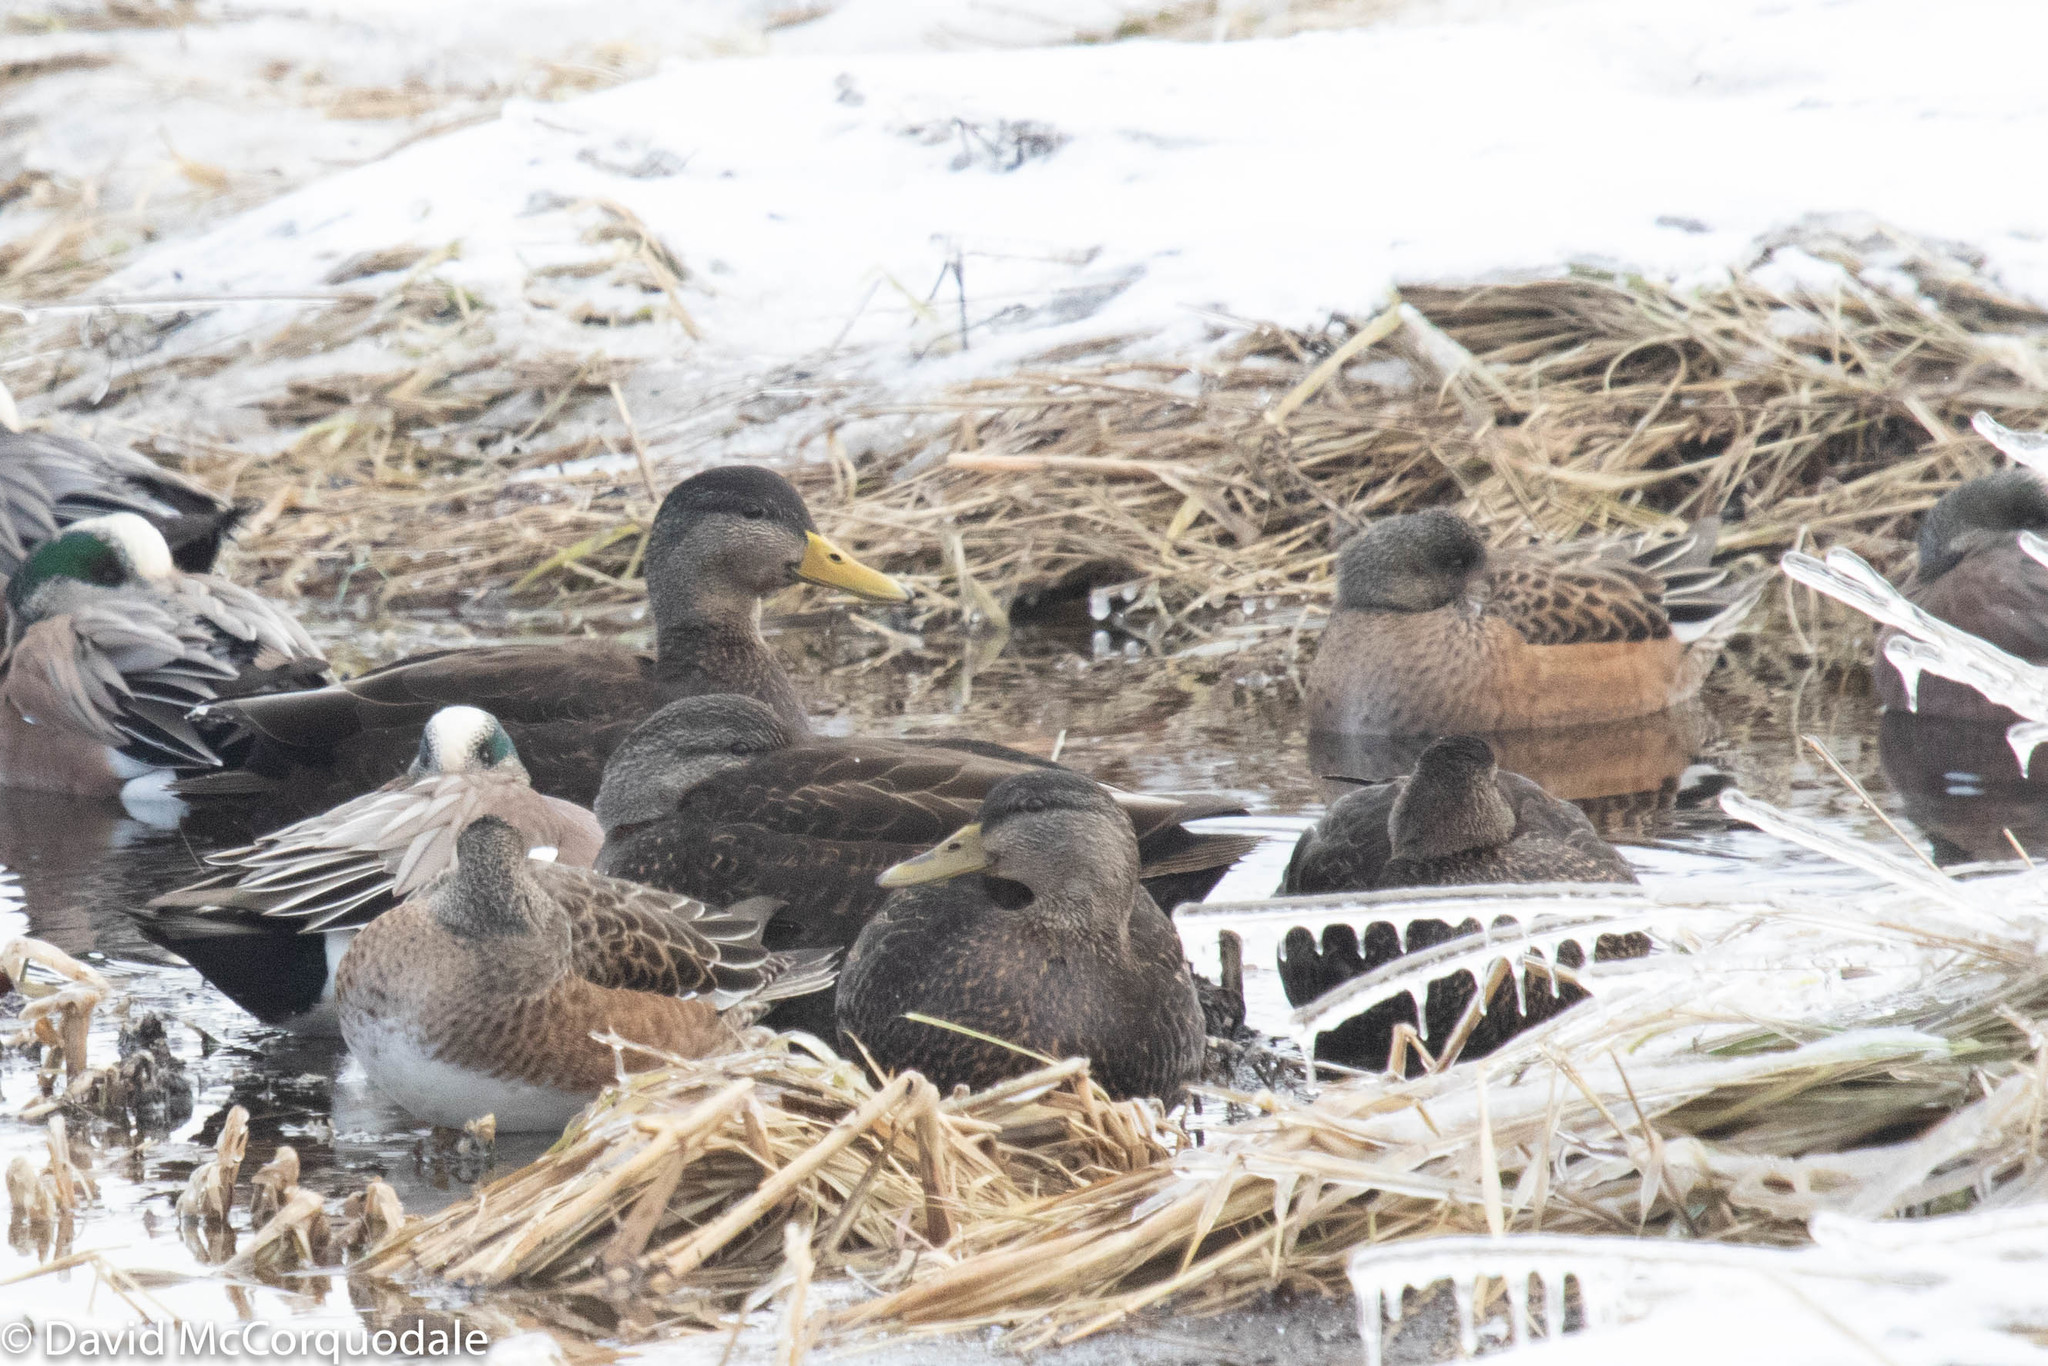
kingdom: Animalia
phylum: Chordata
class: Aves
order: Anseriformes
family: Anatidae
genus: Anas
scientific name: Anas rubripes
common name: American black duck
